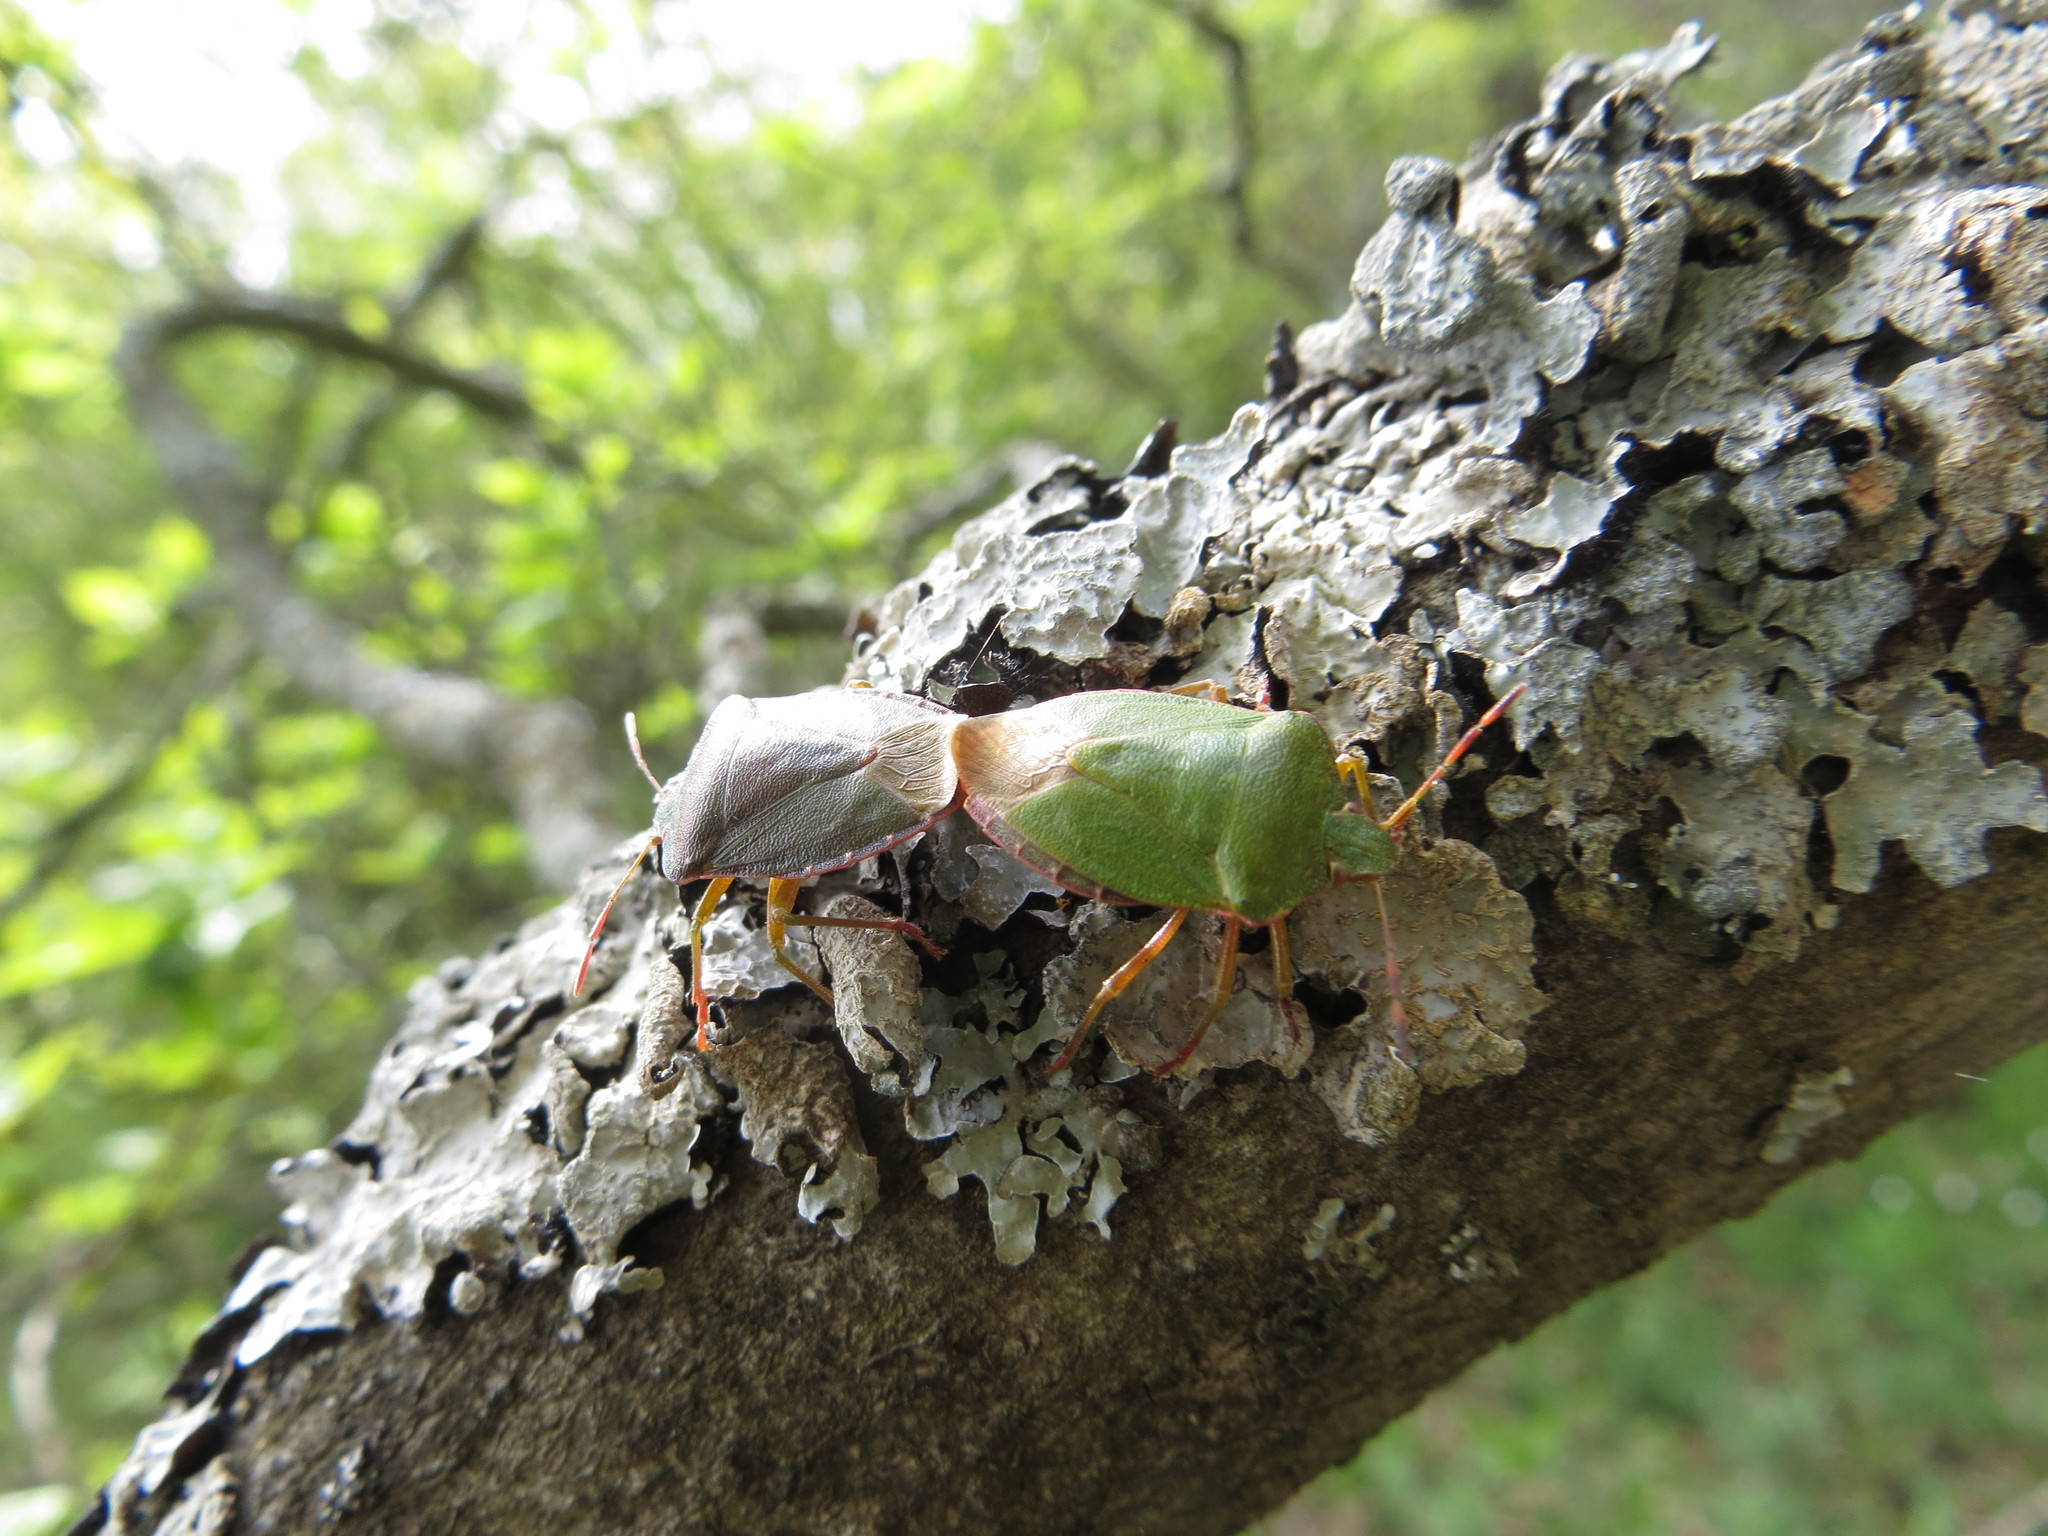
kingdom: Animalia
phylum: Arthropoda
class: Insecta
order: Hemiptera
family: Pentatomidae
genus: Palomena
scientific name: Palomena prasina
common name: Green shieldbug
